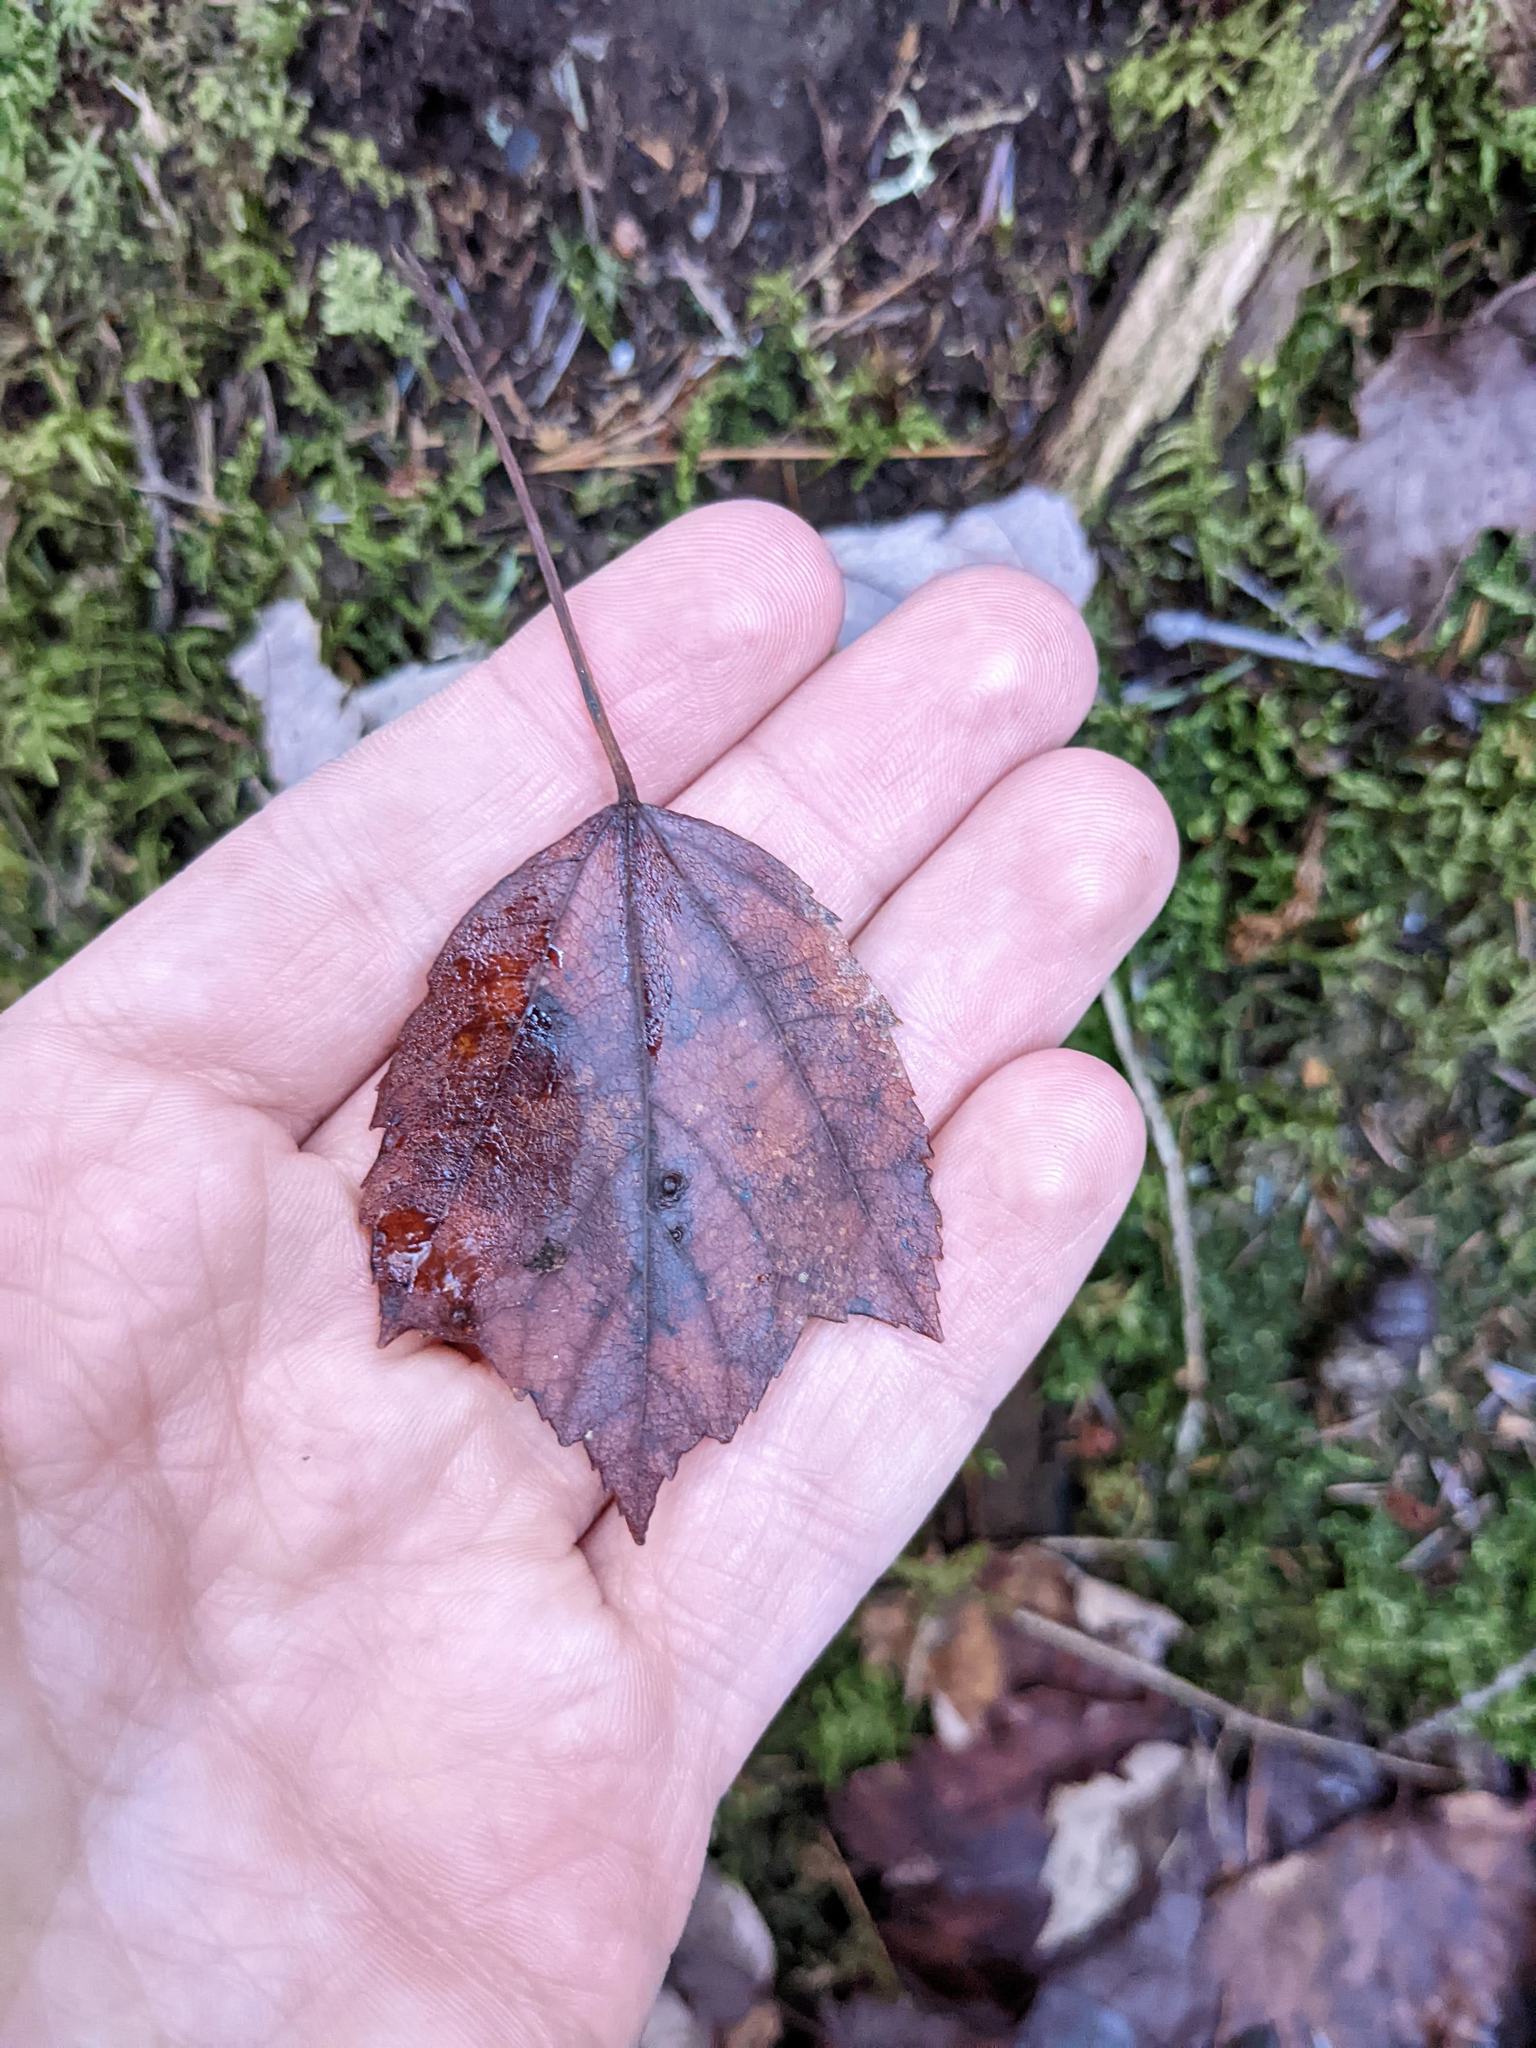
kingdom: Plantae
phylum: Tracheophyta
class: Magnoliopsida
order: Sapindales
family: Sapindaceae
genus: Acer
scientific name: Acer rubrum
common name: Red maple
